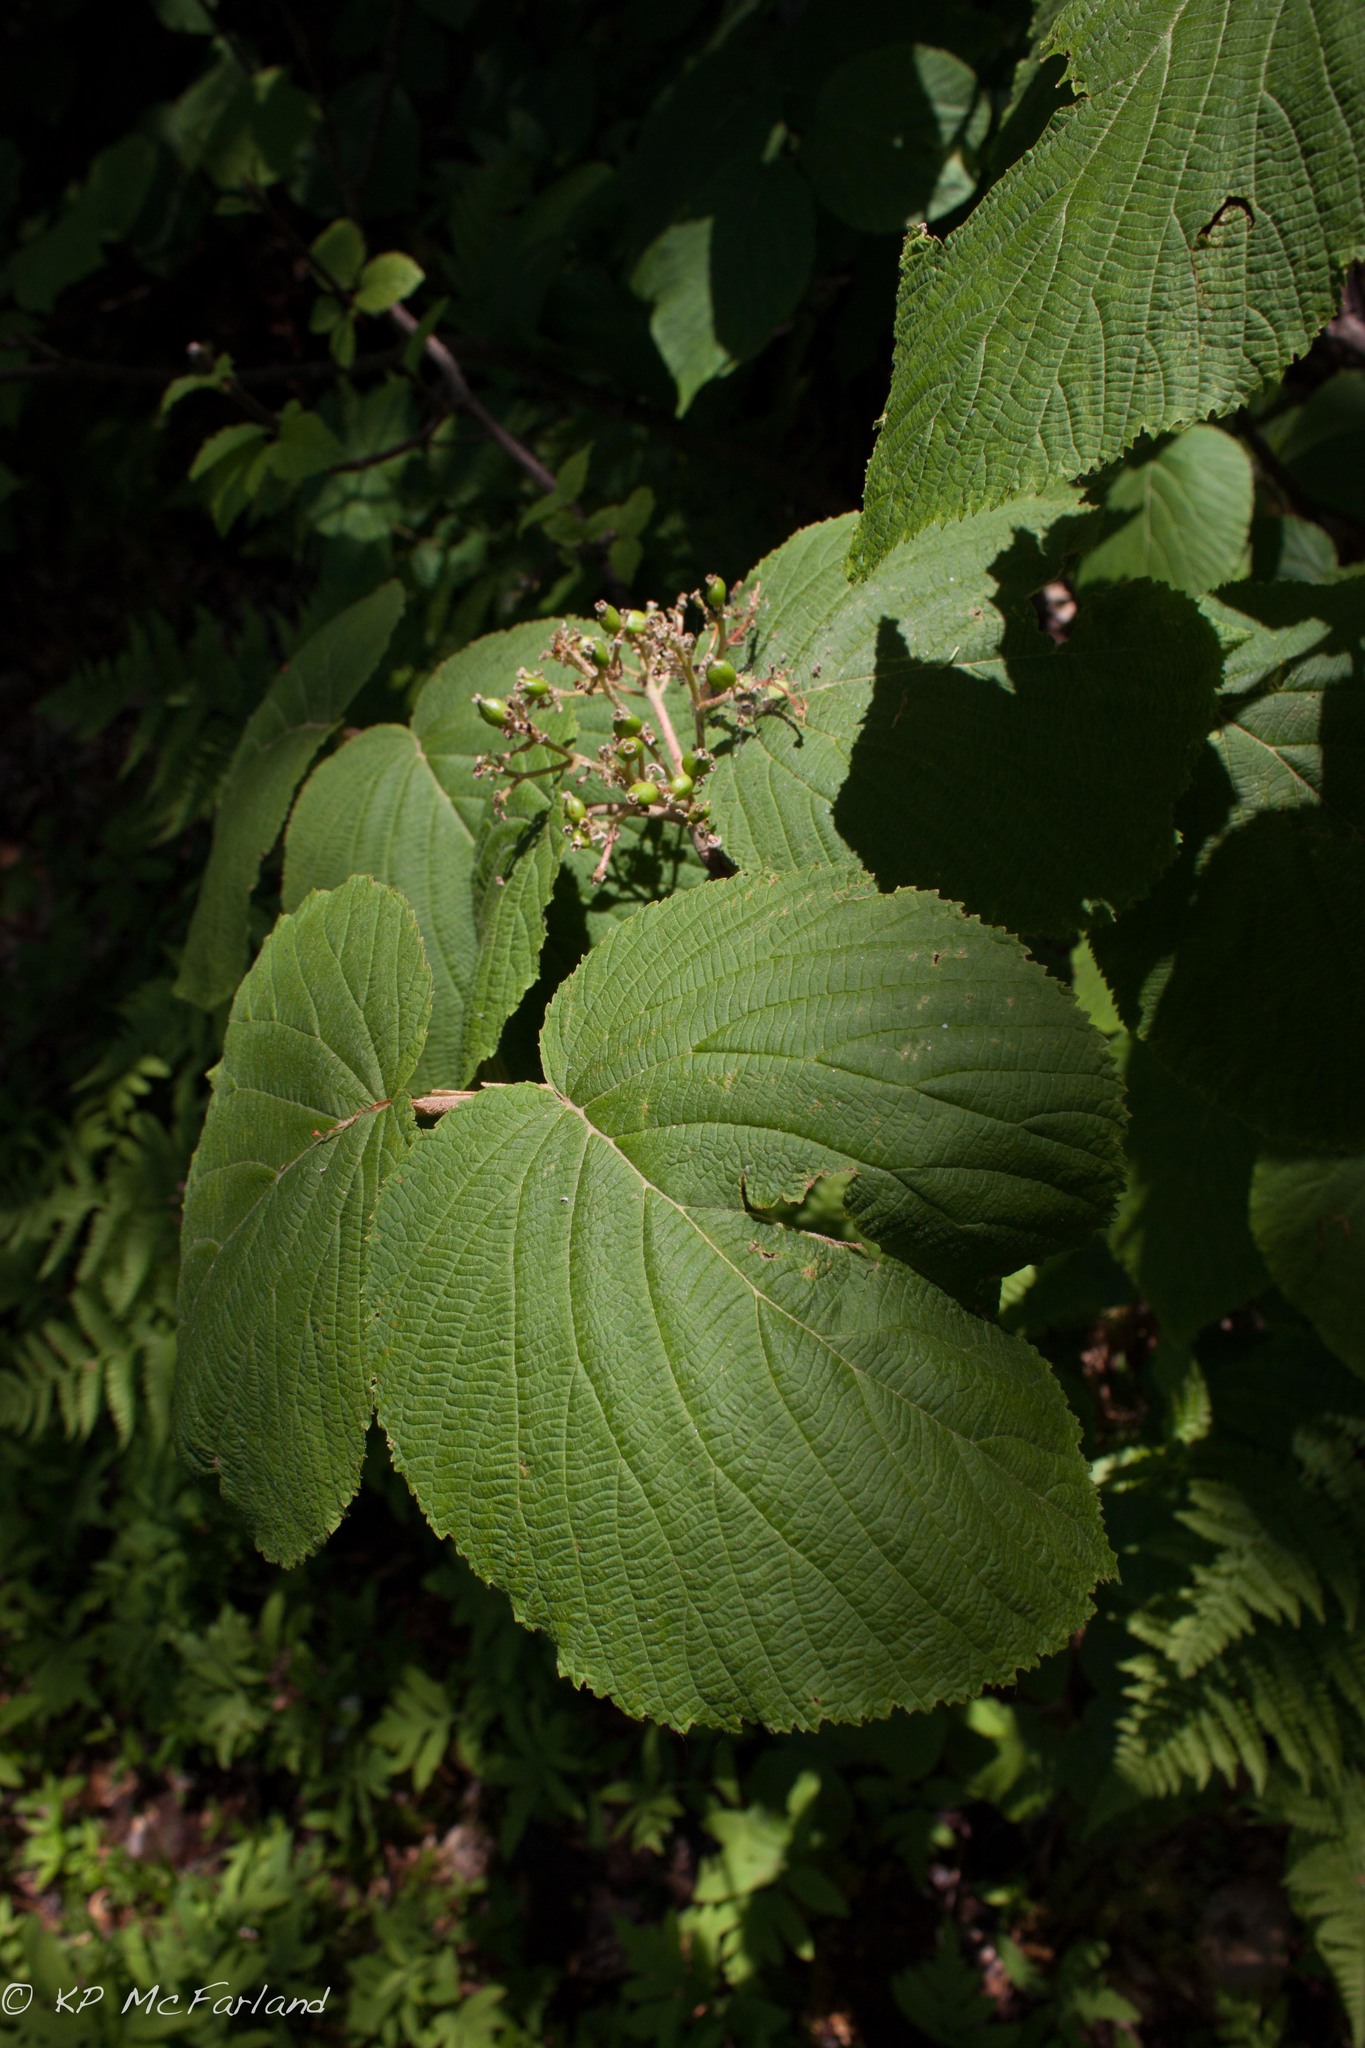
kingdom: Plantae
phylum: Tracheophyta
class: Magnoliopsida
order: Dipsacales
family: Viburnaceae
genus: Viburnum
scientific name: Viburnum lantanoides
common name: Hobblebush
